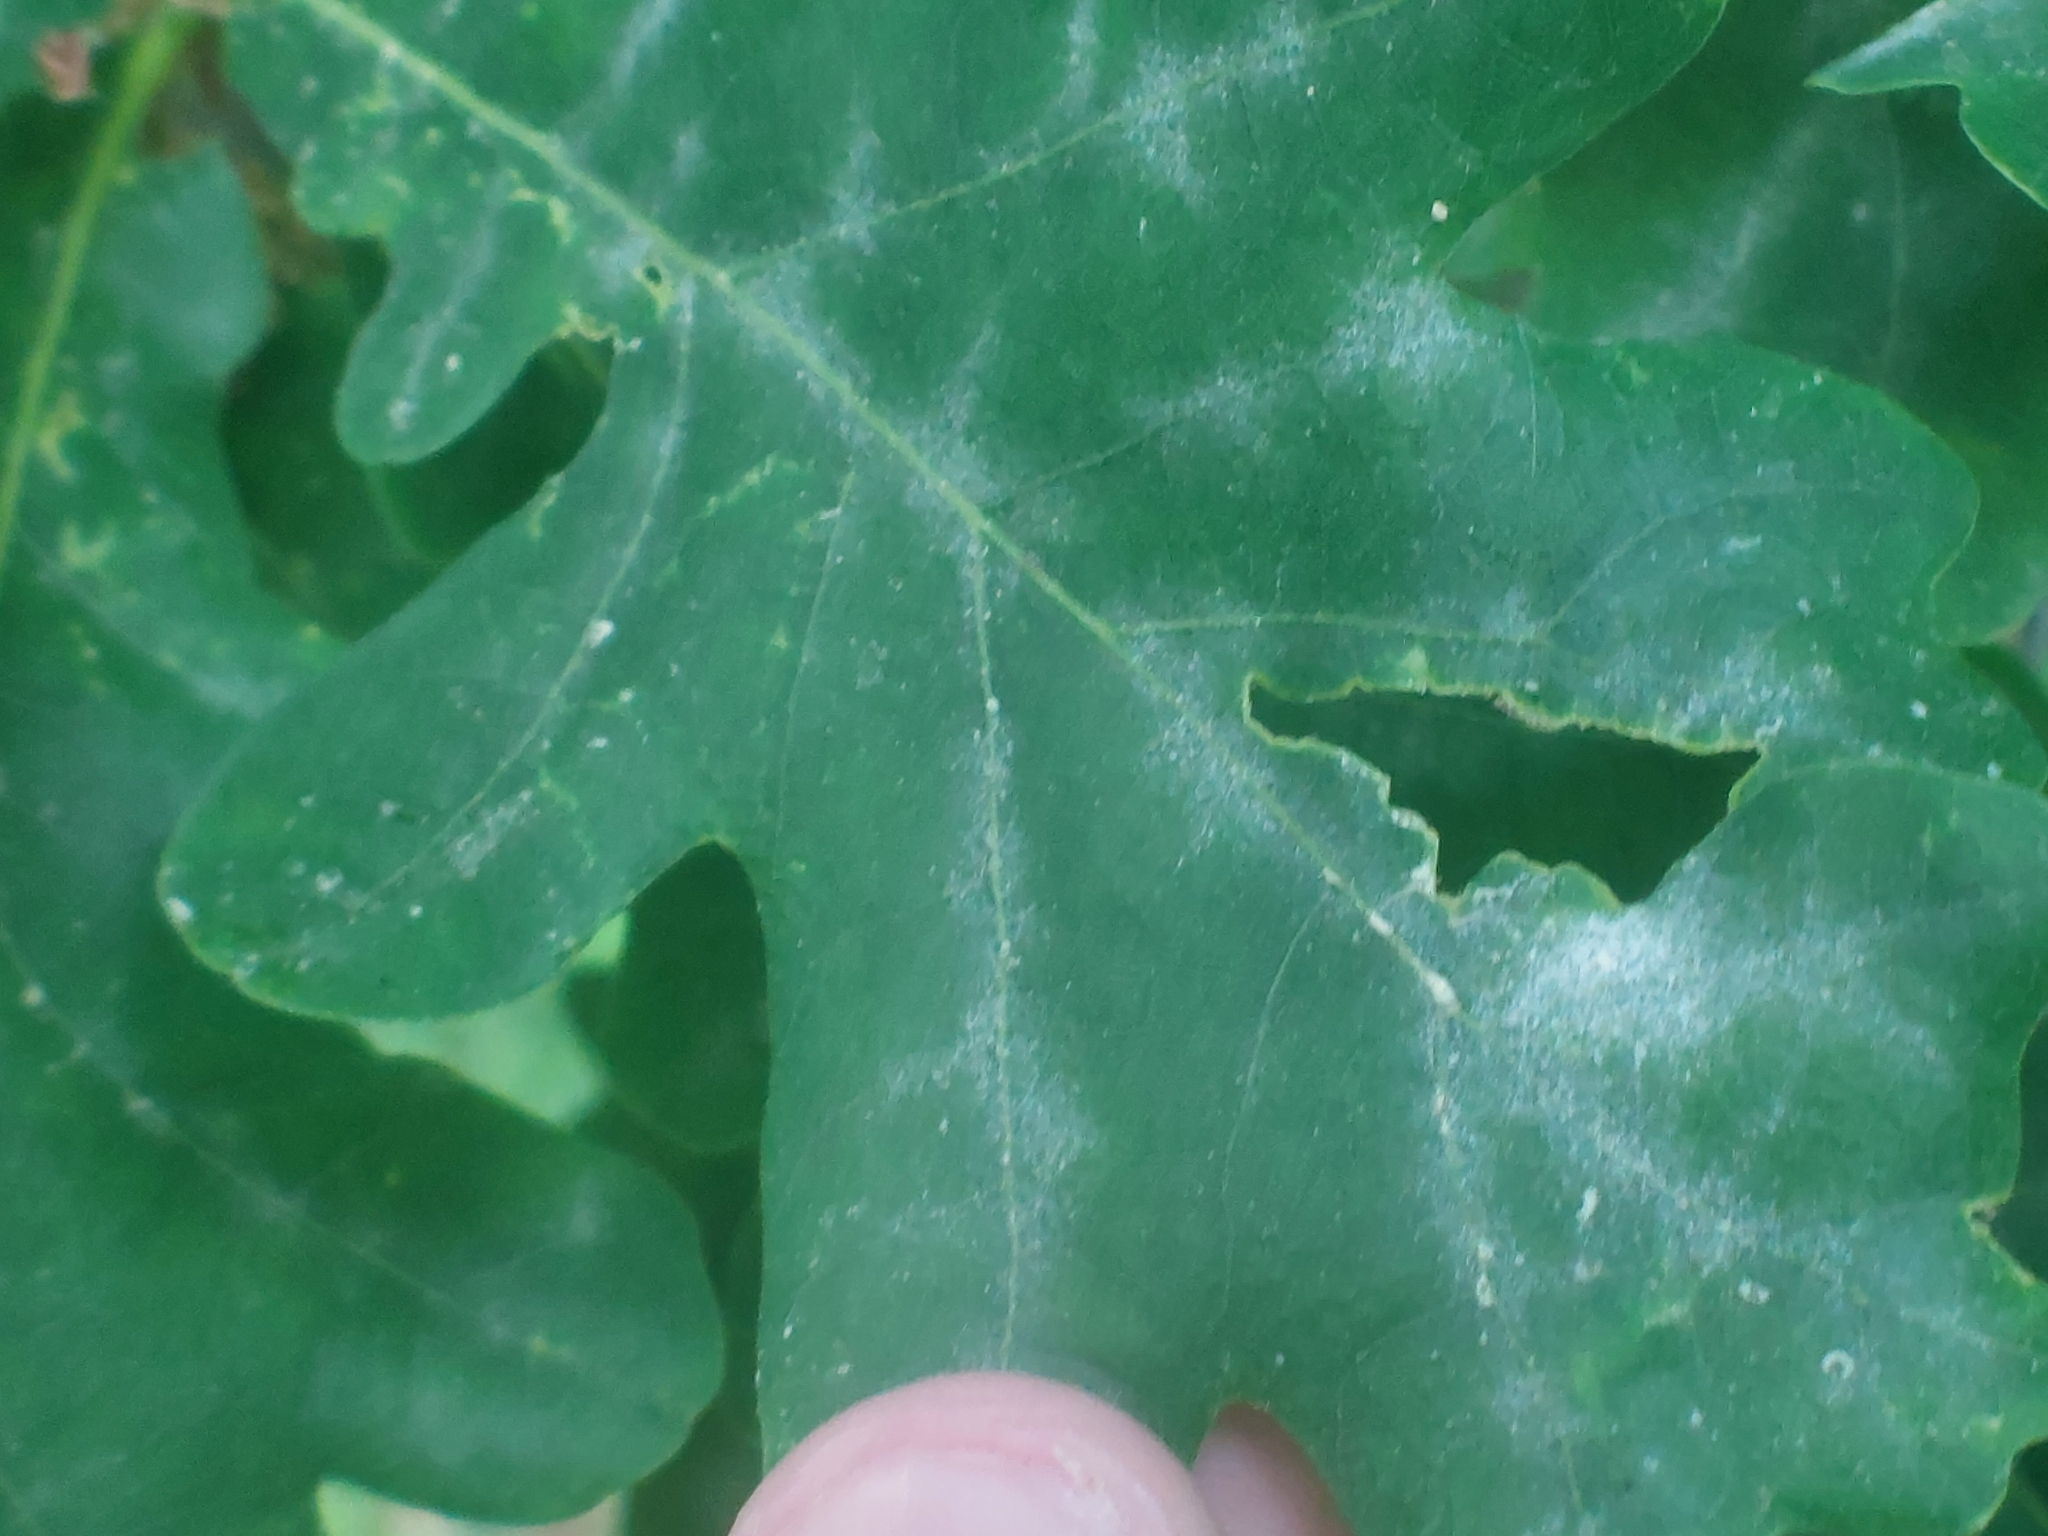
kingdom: Fungi
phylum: Ascomycota
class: Leotiomycetes
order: Helotiales
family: Erysiphaceae
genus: Erysiphe
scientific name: Erysiphe alphitoides
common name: Oak mildew
